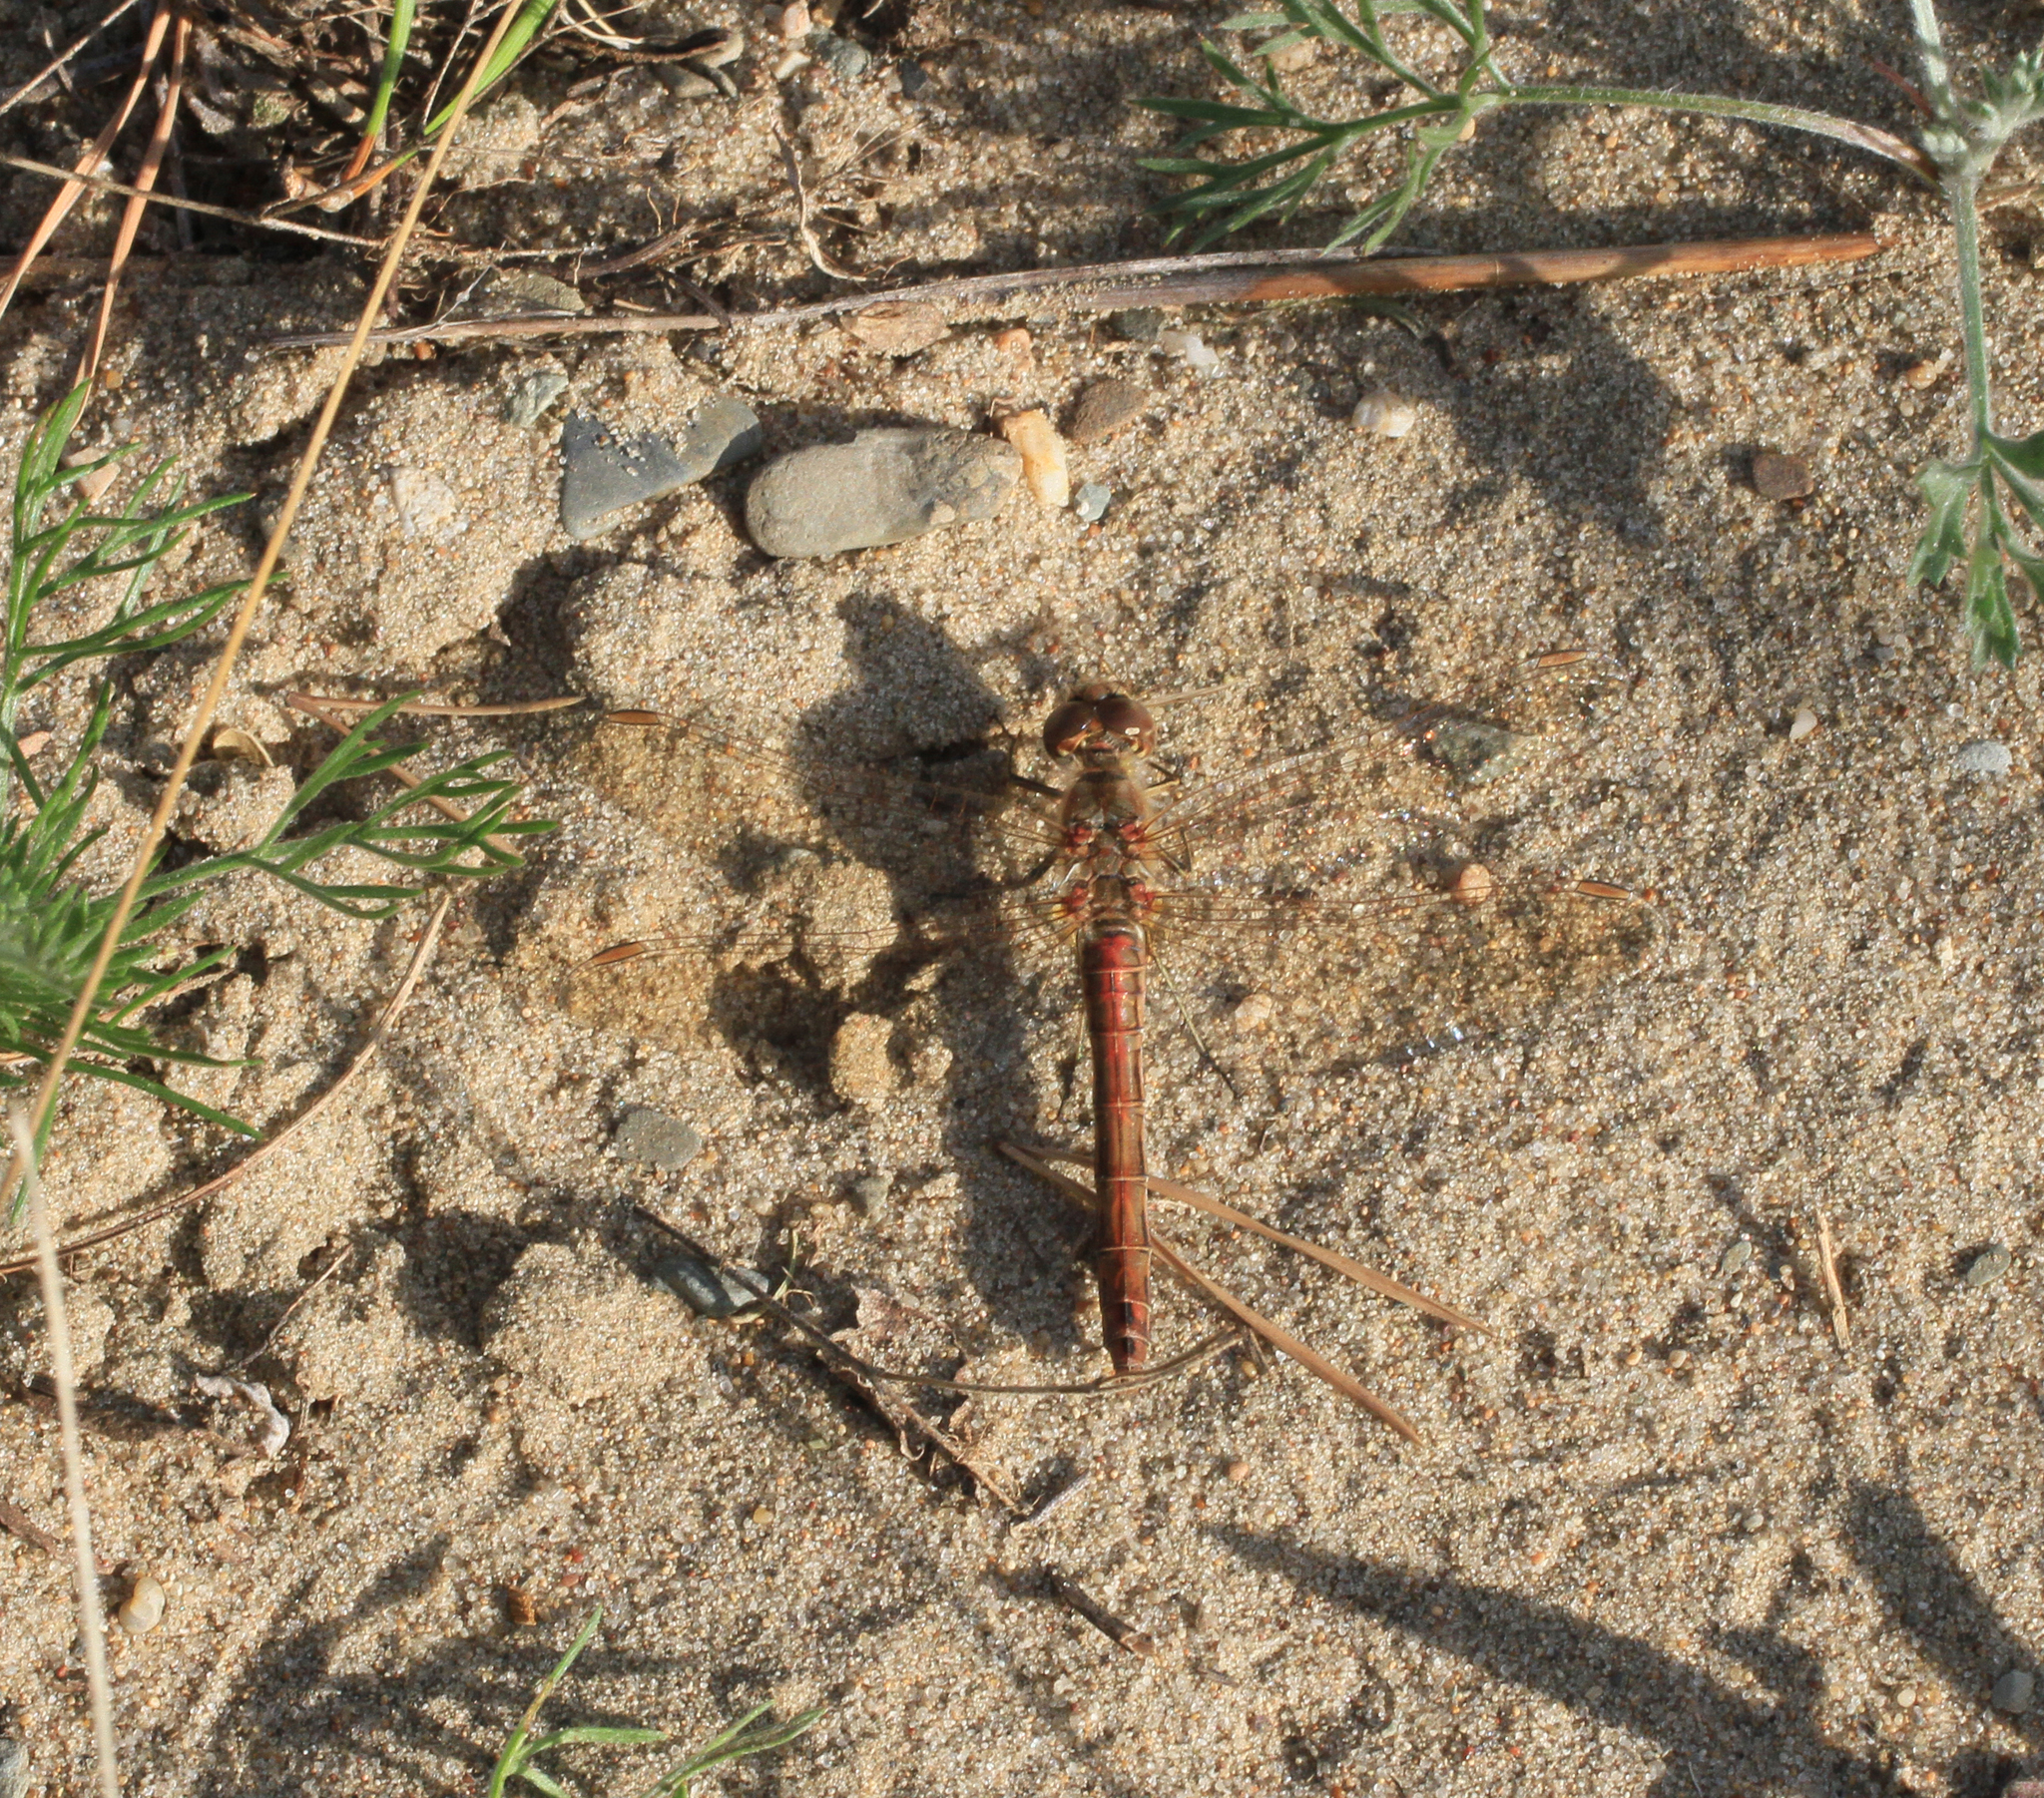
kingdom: Animalia
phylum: Arthropoda
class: Insecta
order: Odonata
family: Libellulidae
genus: Sympetrum
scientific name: Sympetrum vulgatum
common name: Vagrant darter
